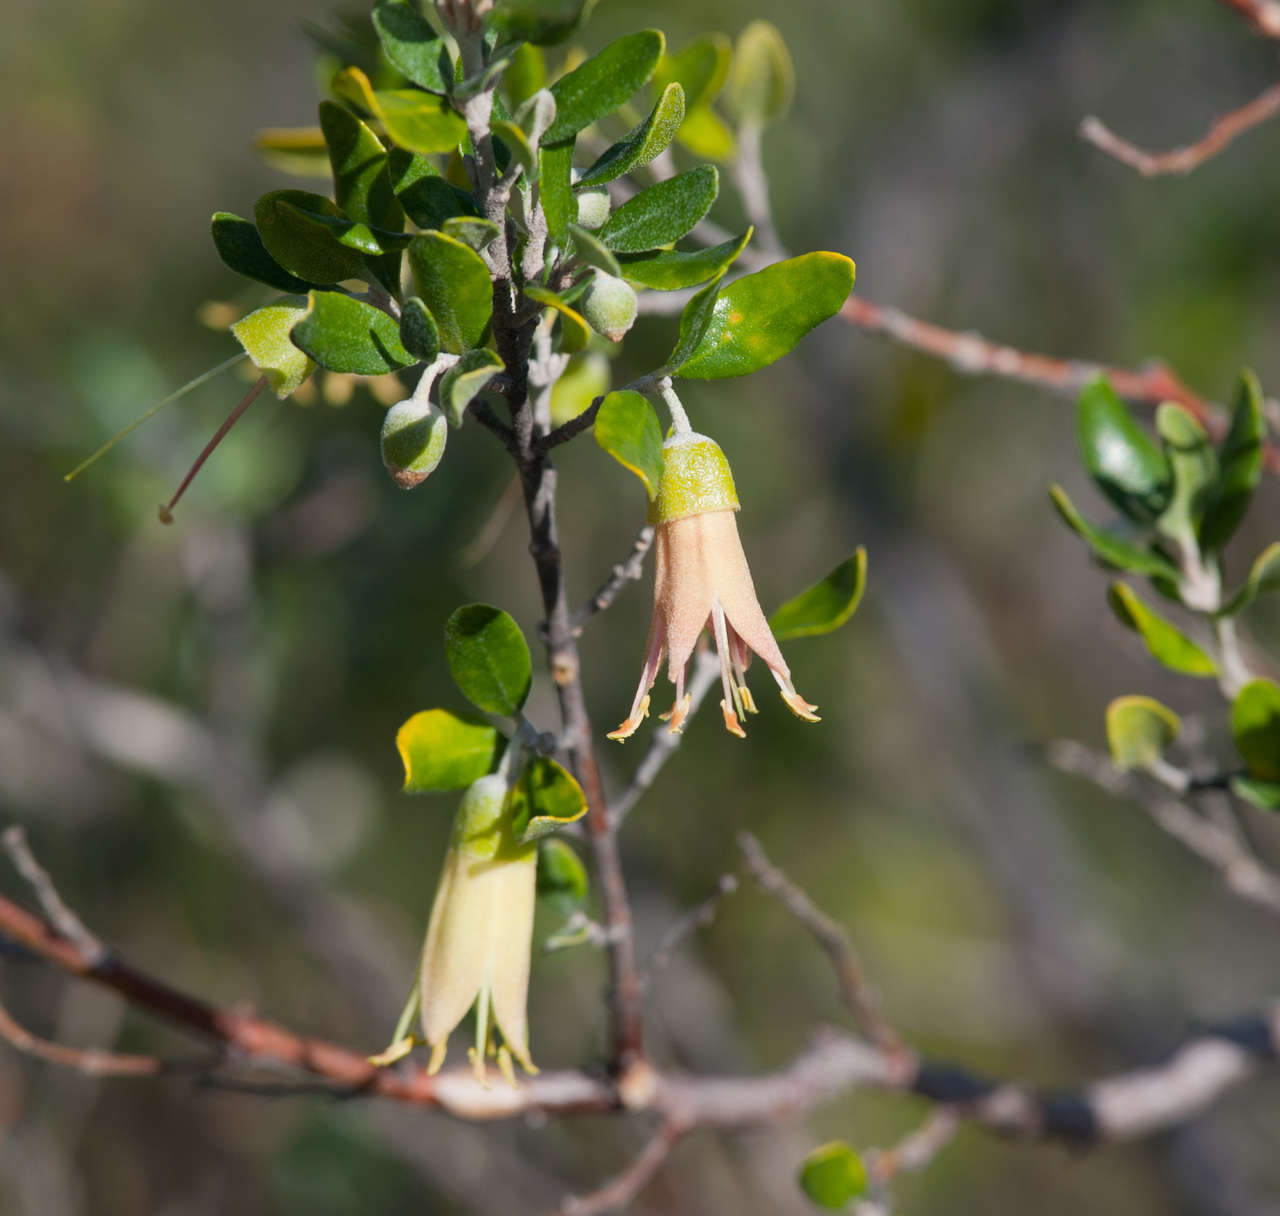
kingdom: Plantae
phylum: Tracheophyta
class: Magnoliopsida
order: Sapindales
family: Rutaceae
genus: Correa
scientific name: Correa glabra
